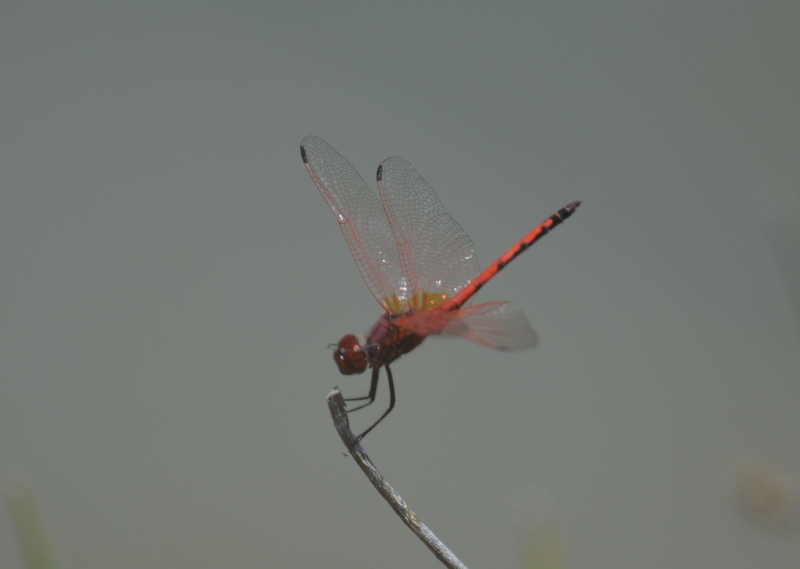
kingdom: Animalia
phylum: Arthropoda
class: Insecta
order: Odonata
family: Libellulidae
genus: Trithemis
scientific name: Trithemis arteriosa
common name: Red-veined dropwing
